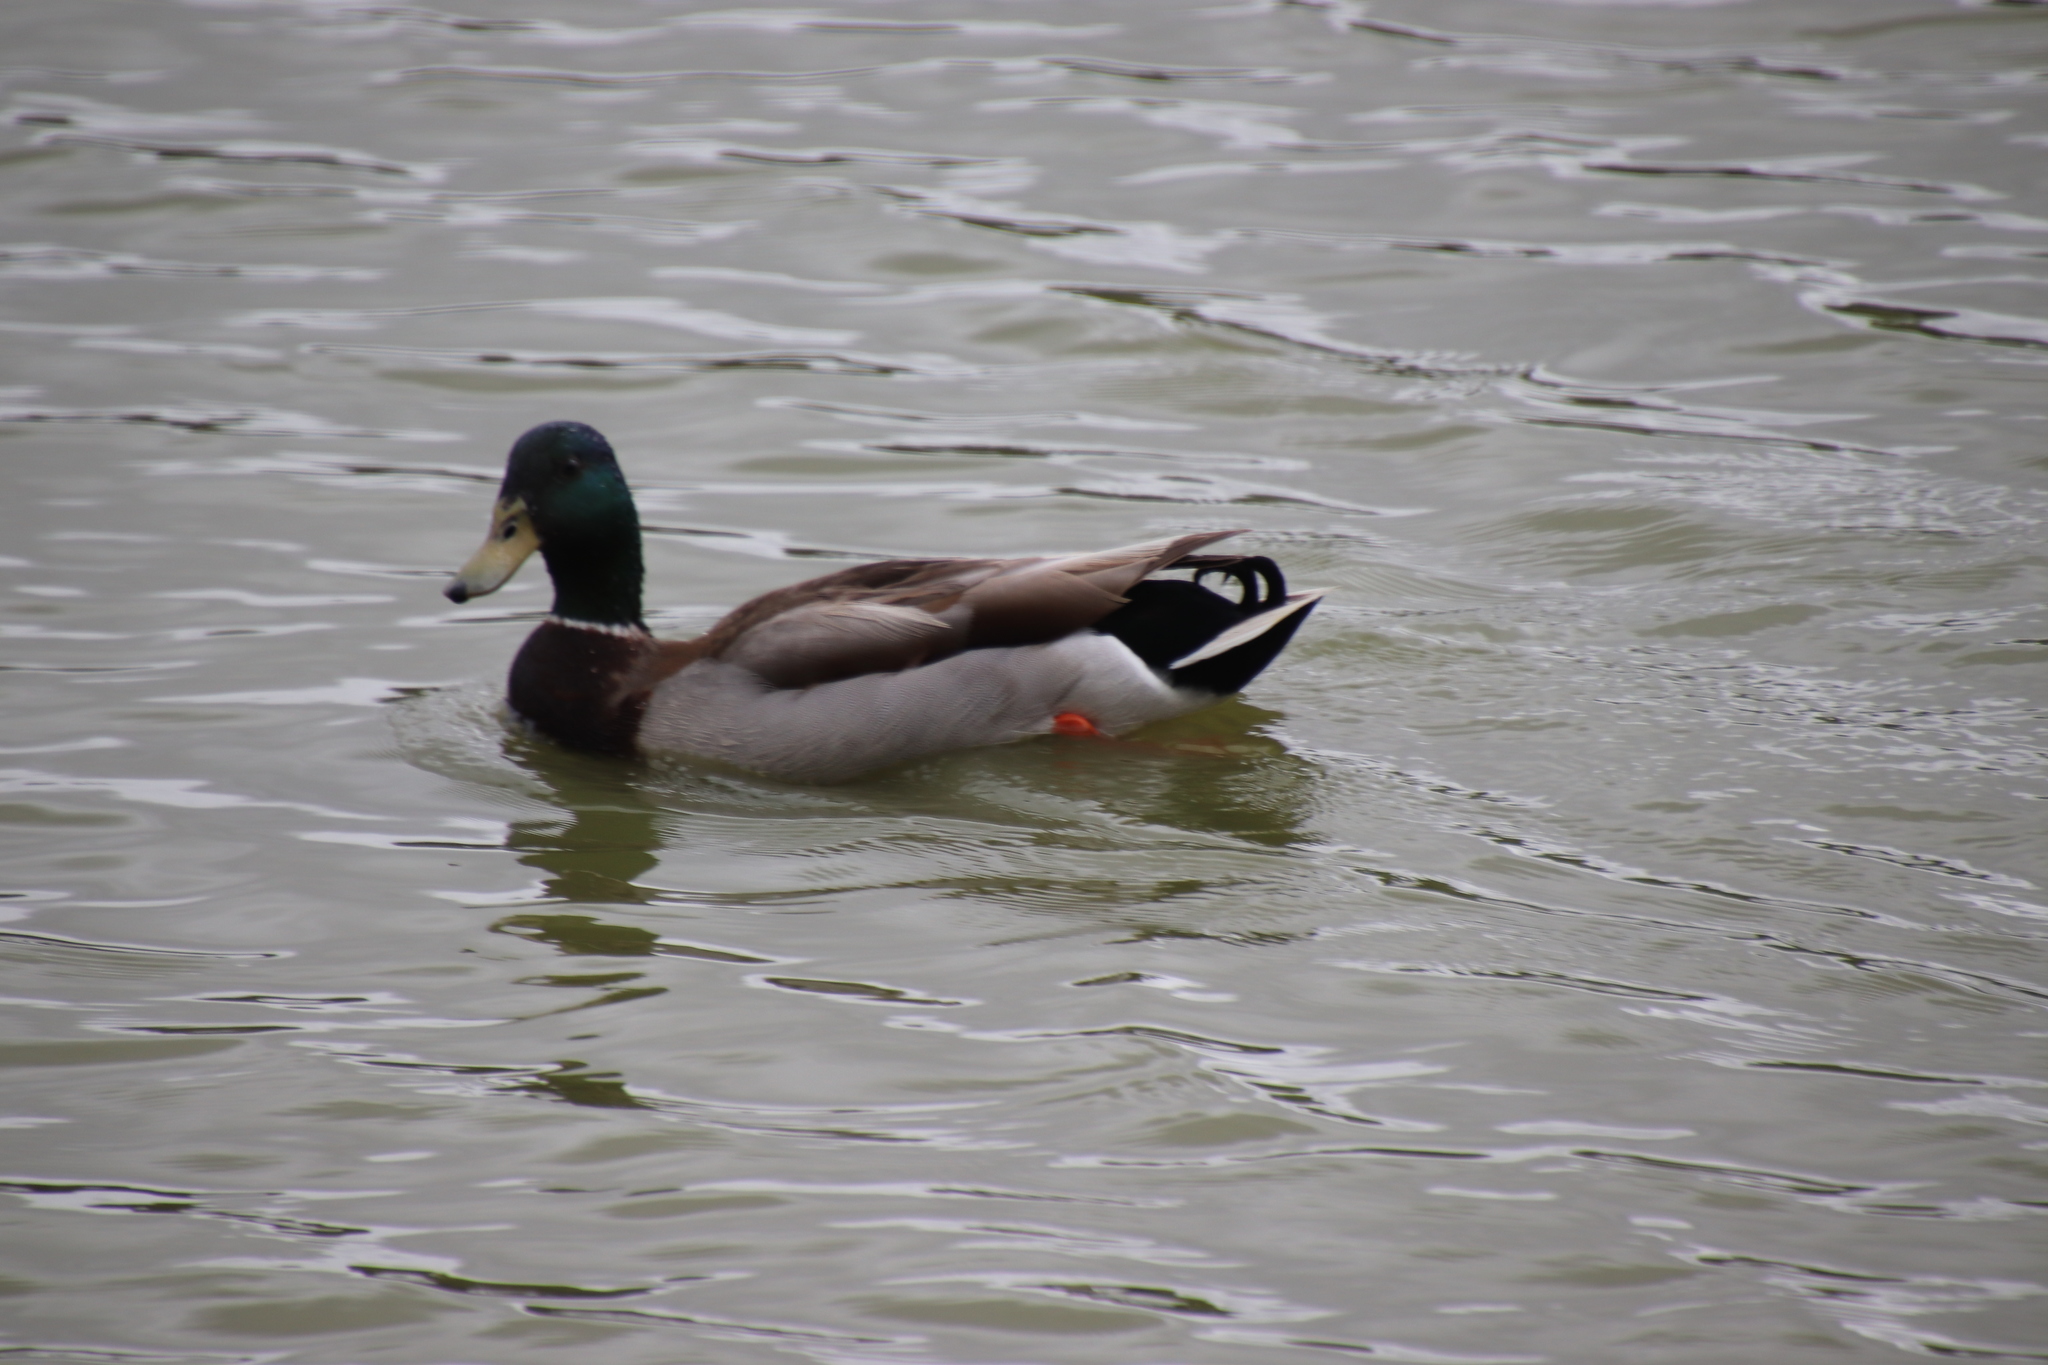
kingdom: Animalia
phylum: Chordata
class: Aves
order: Anseriformes
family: Anatidae
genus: Anas
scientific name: Anas platyrhynchos
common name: Mallard
